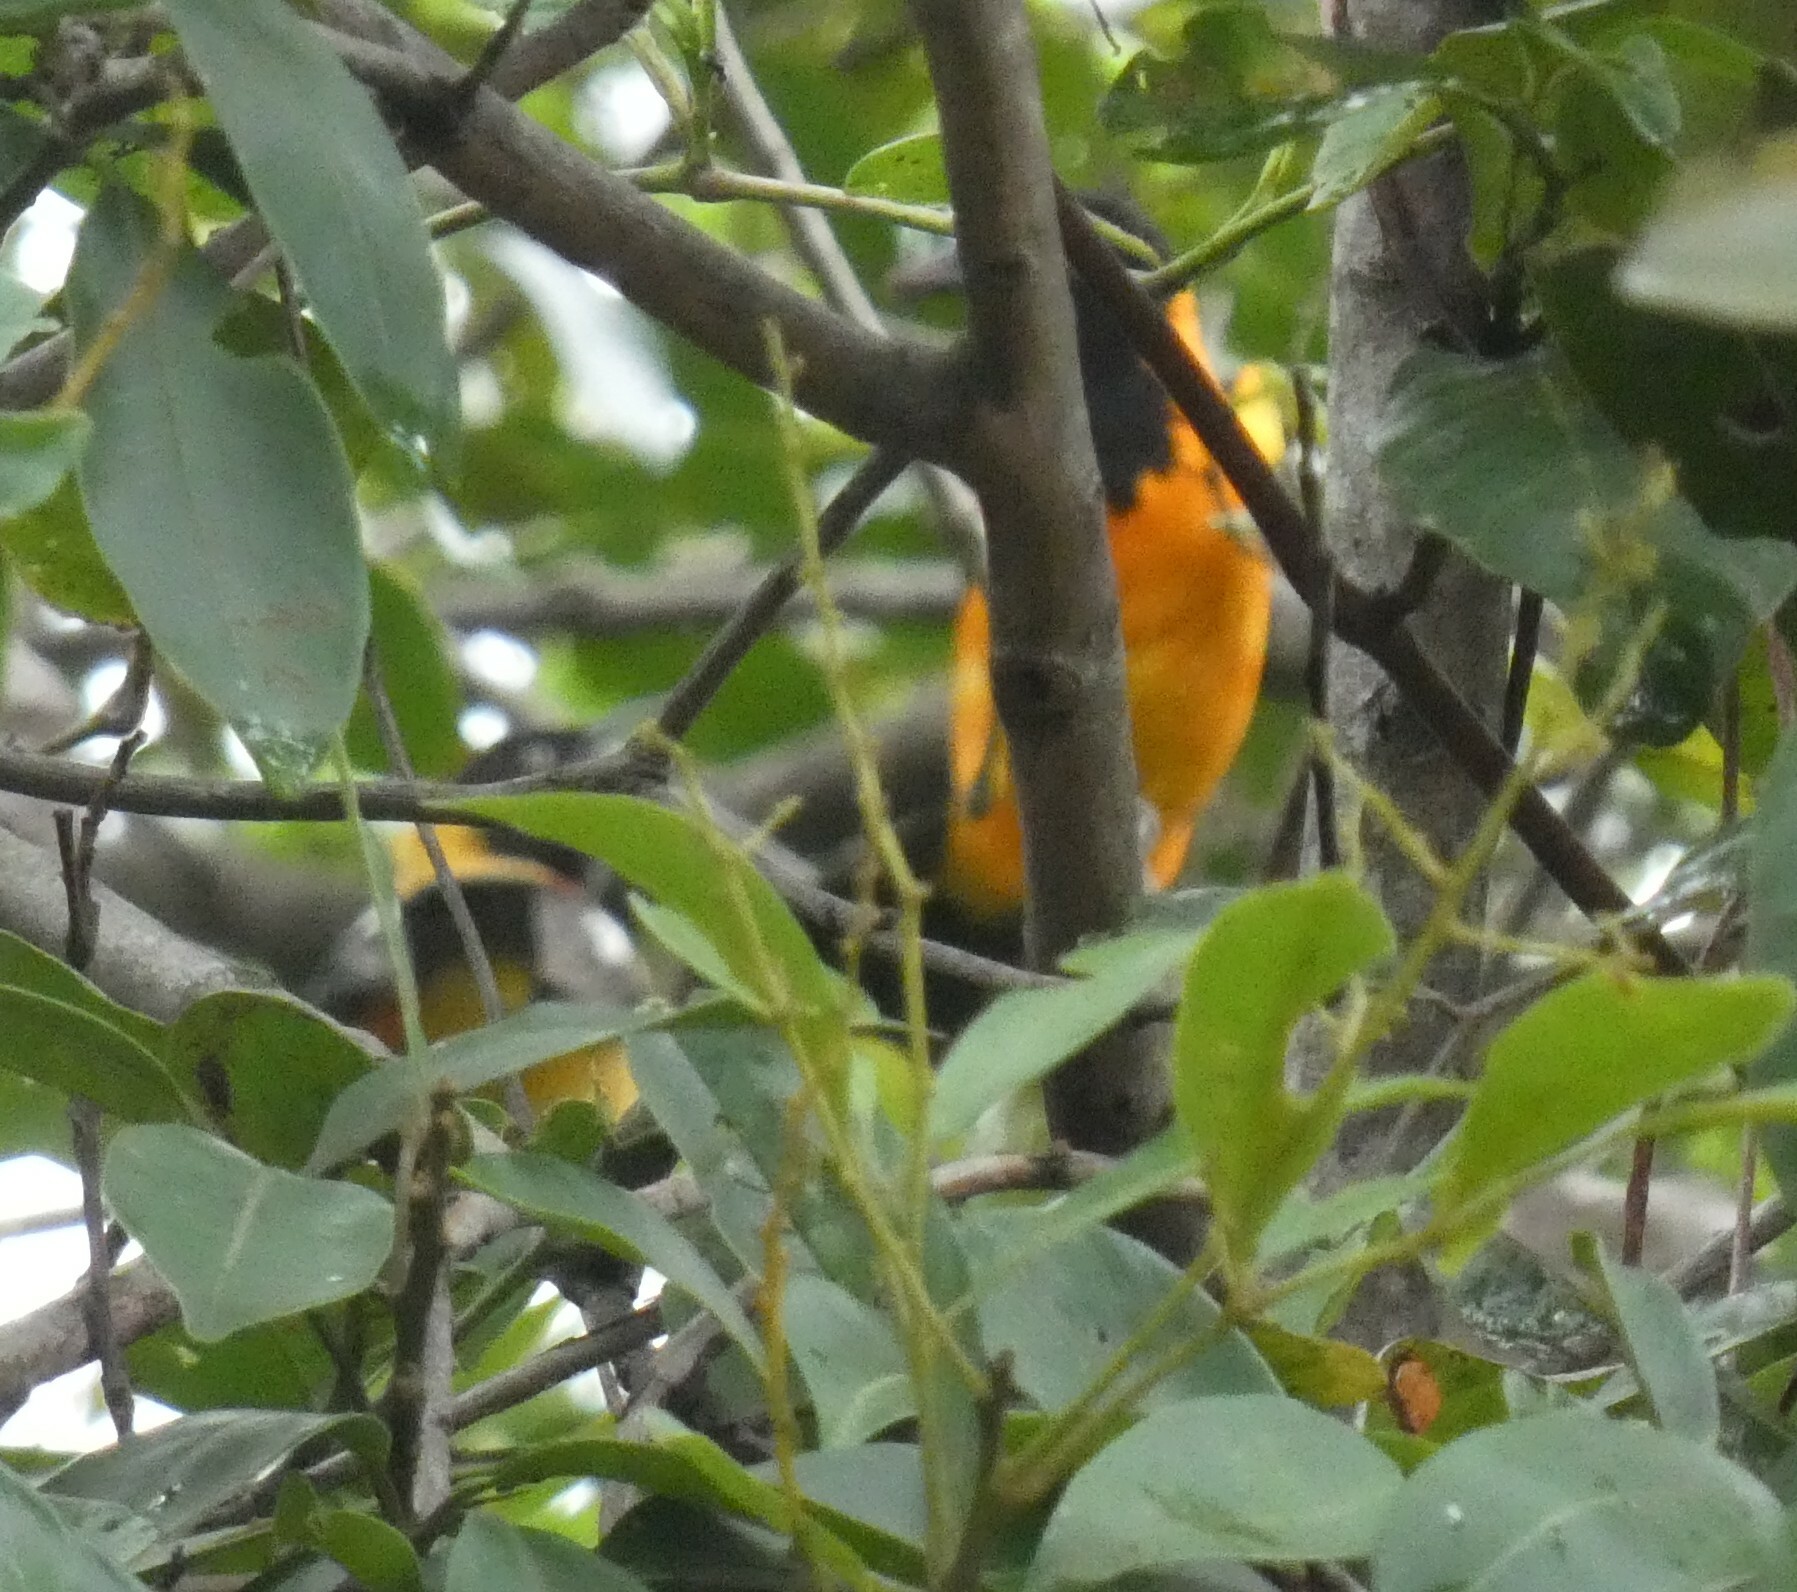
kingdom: Animalia
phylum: Chordata
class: Aves
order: Passeriformes
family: Icteridae
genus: Icterus
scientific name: Icterus icterus
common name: Venezuelan troupial
